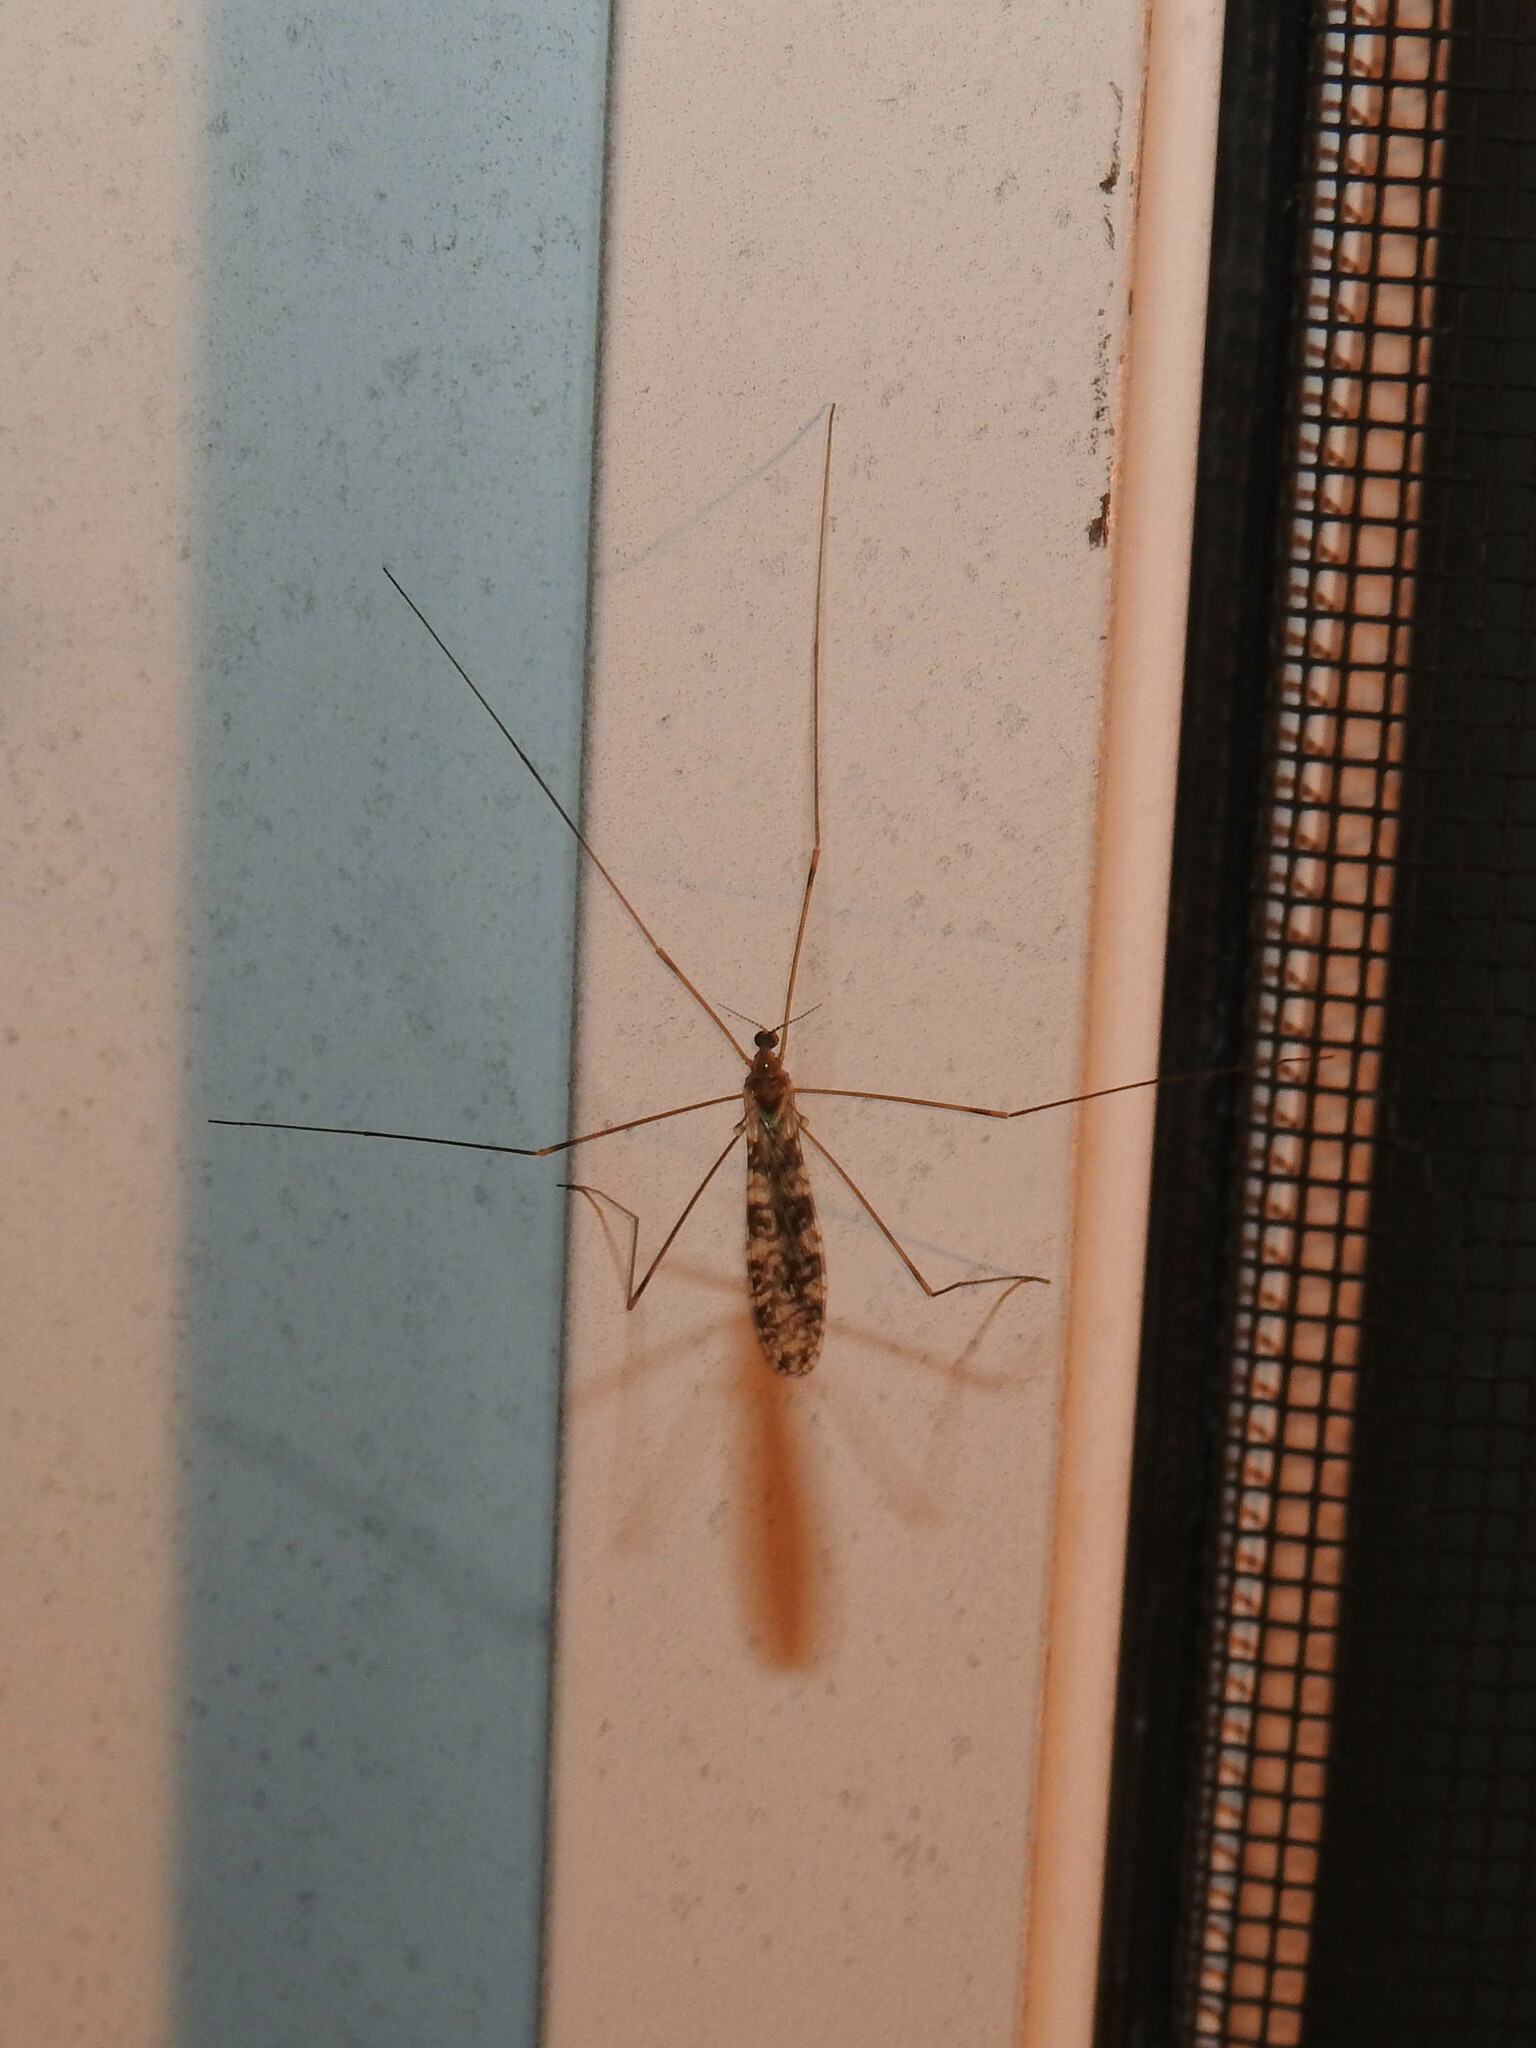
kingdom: Animalia
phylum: Arthropoda
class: Insecta
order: Diptera
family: Limoniidae
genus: Limonia
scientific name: Limonia annulata
